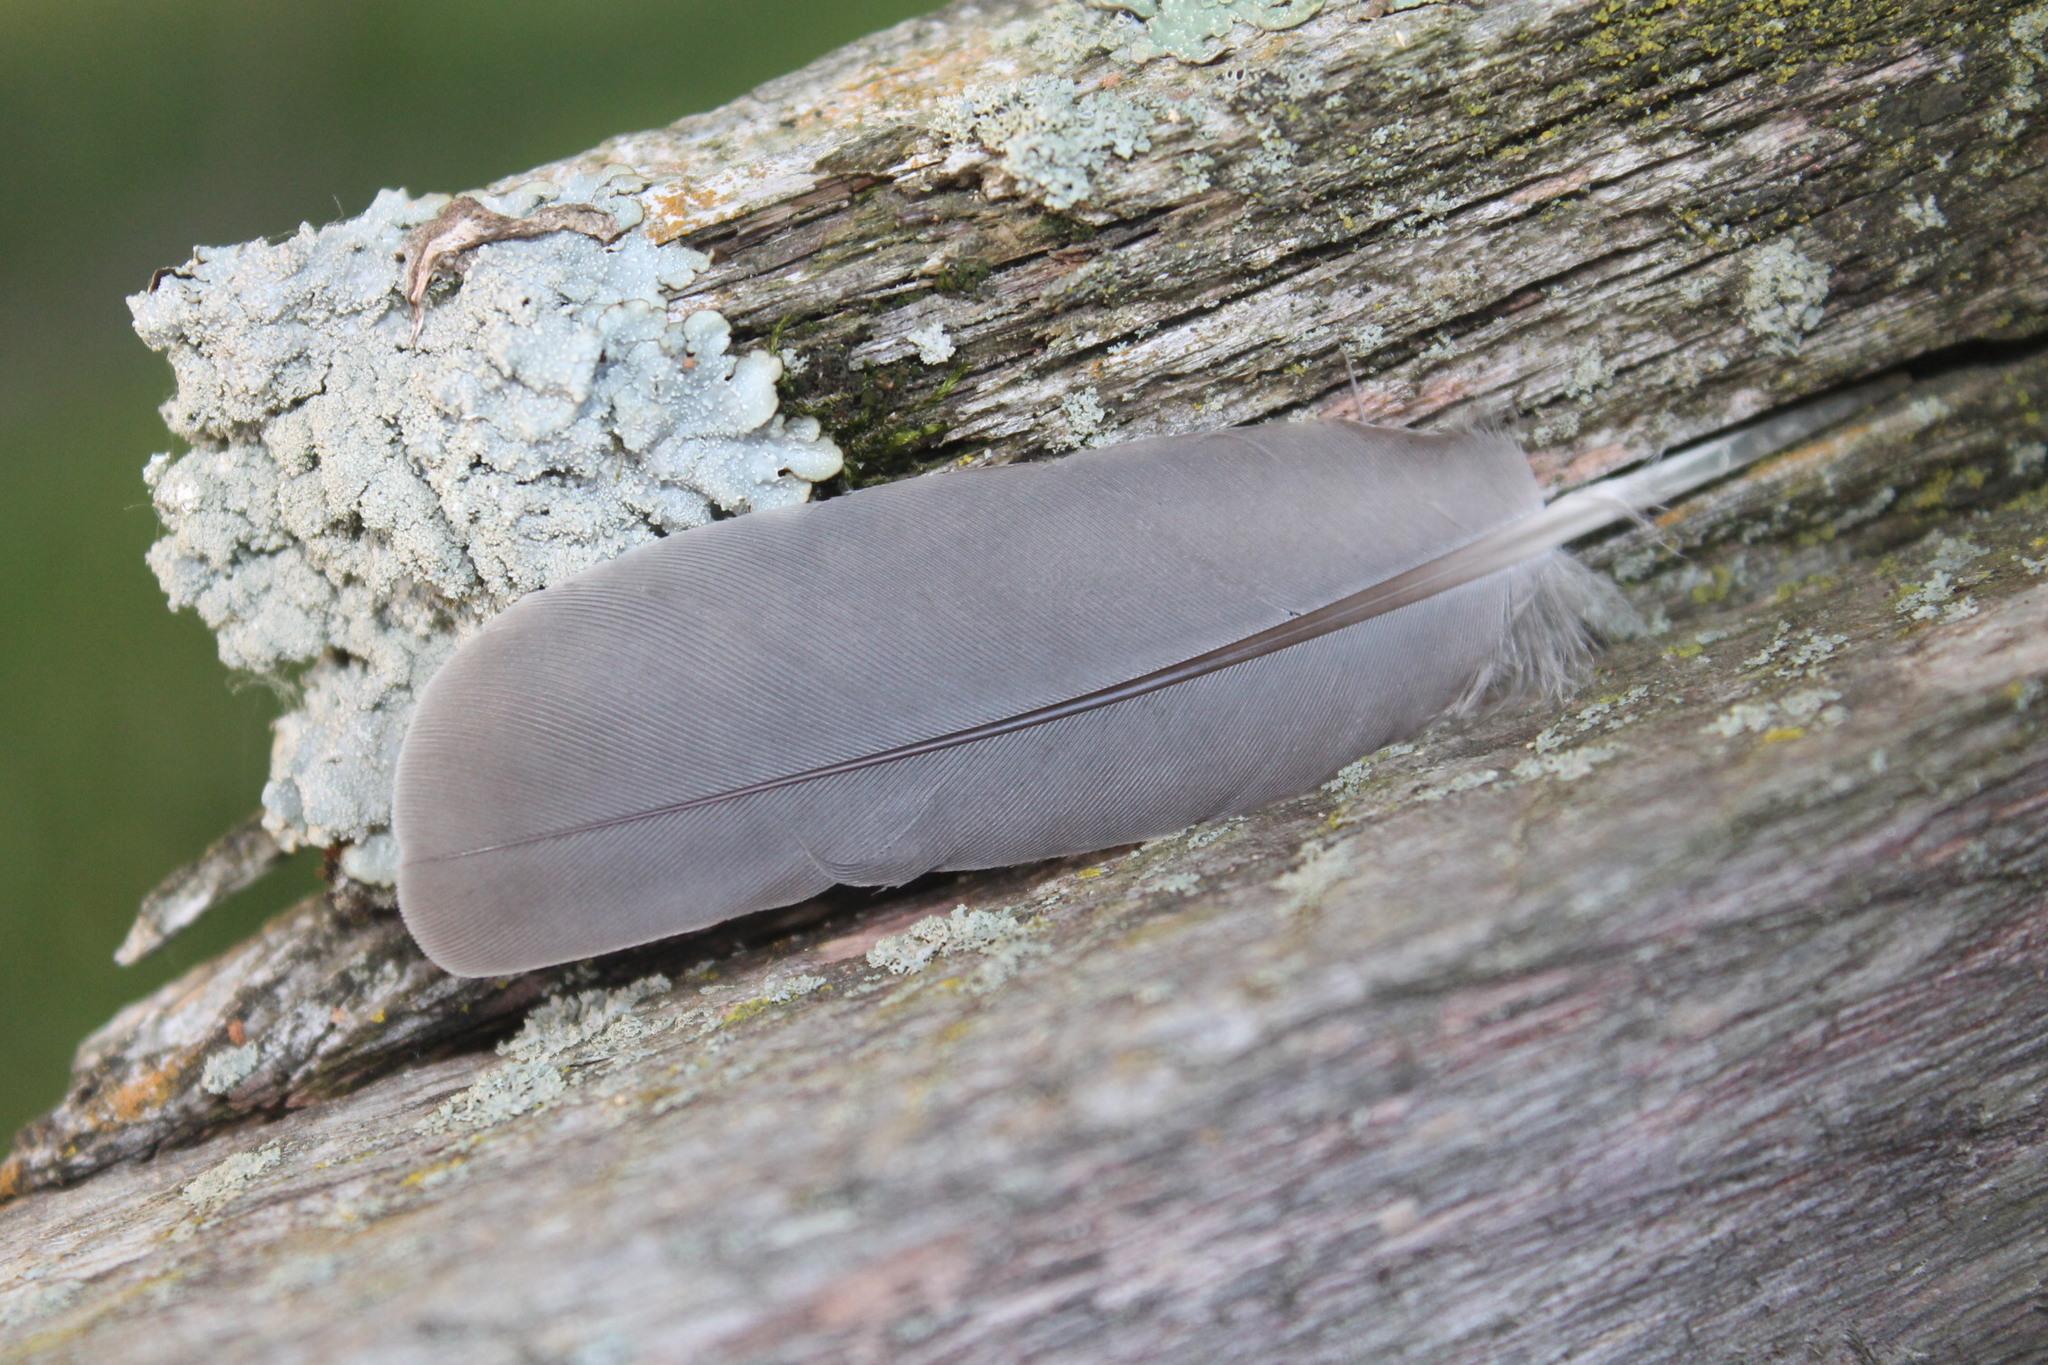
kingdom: Animalia
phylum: Chordata
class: Aves
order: Columbiformes
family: Columbidae
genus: Zenaida
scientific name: Zenaida macroura
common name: Mourning dove
